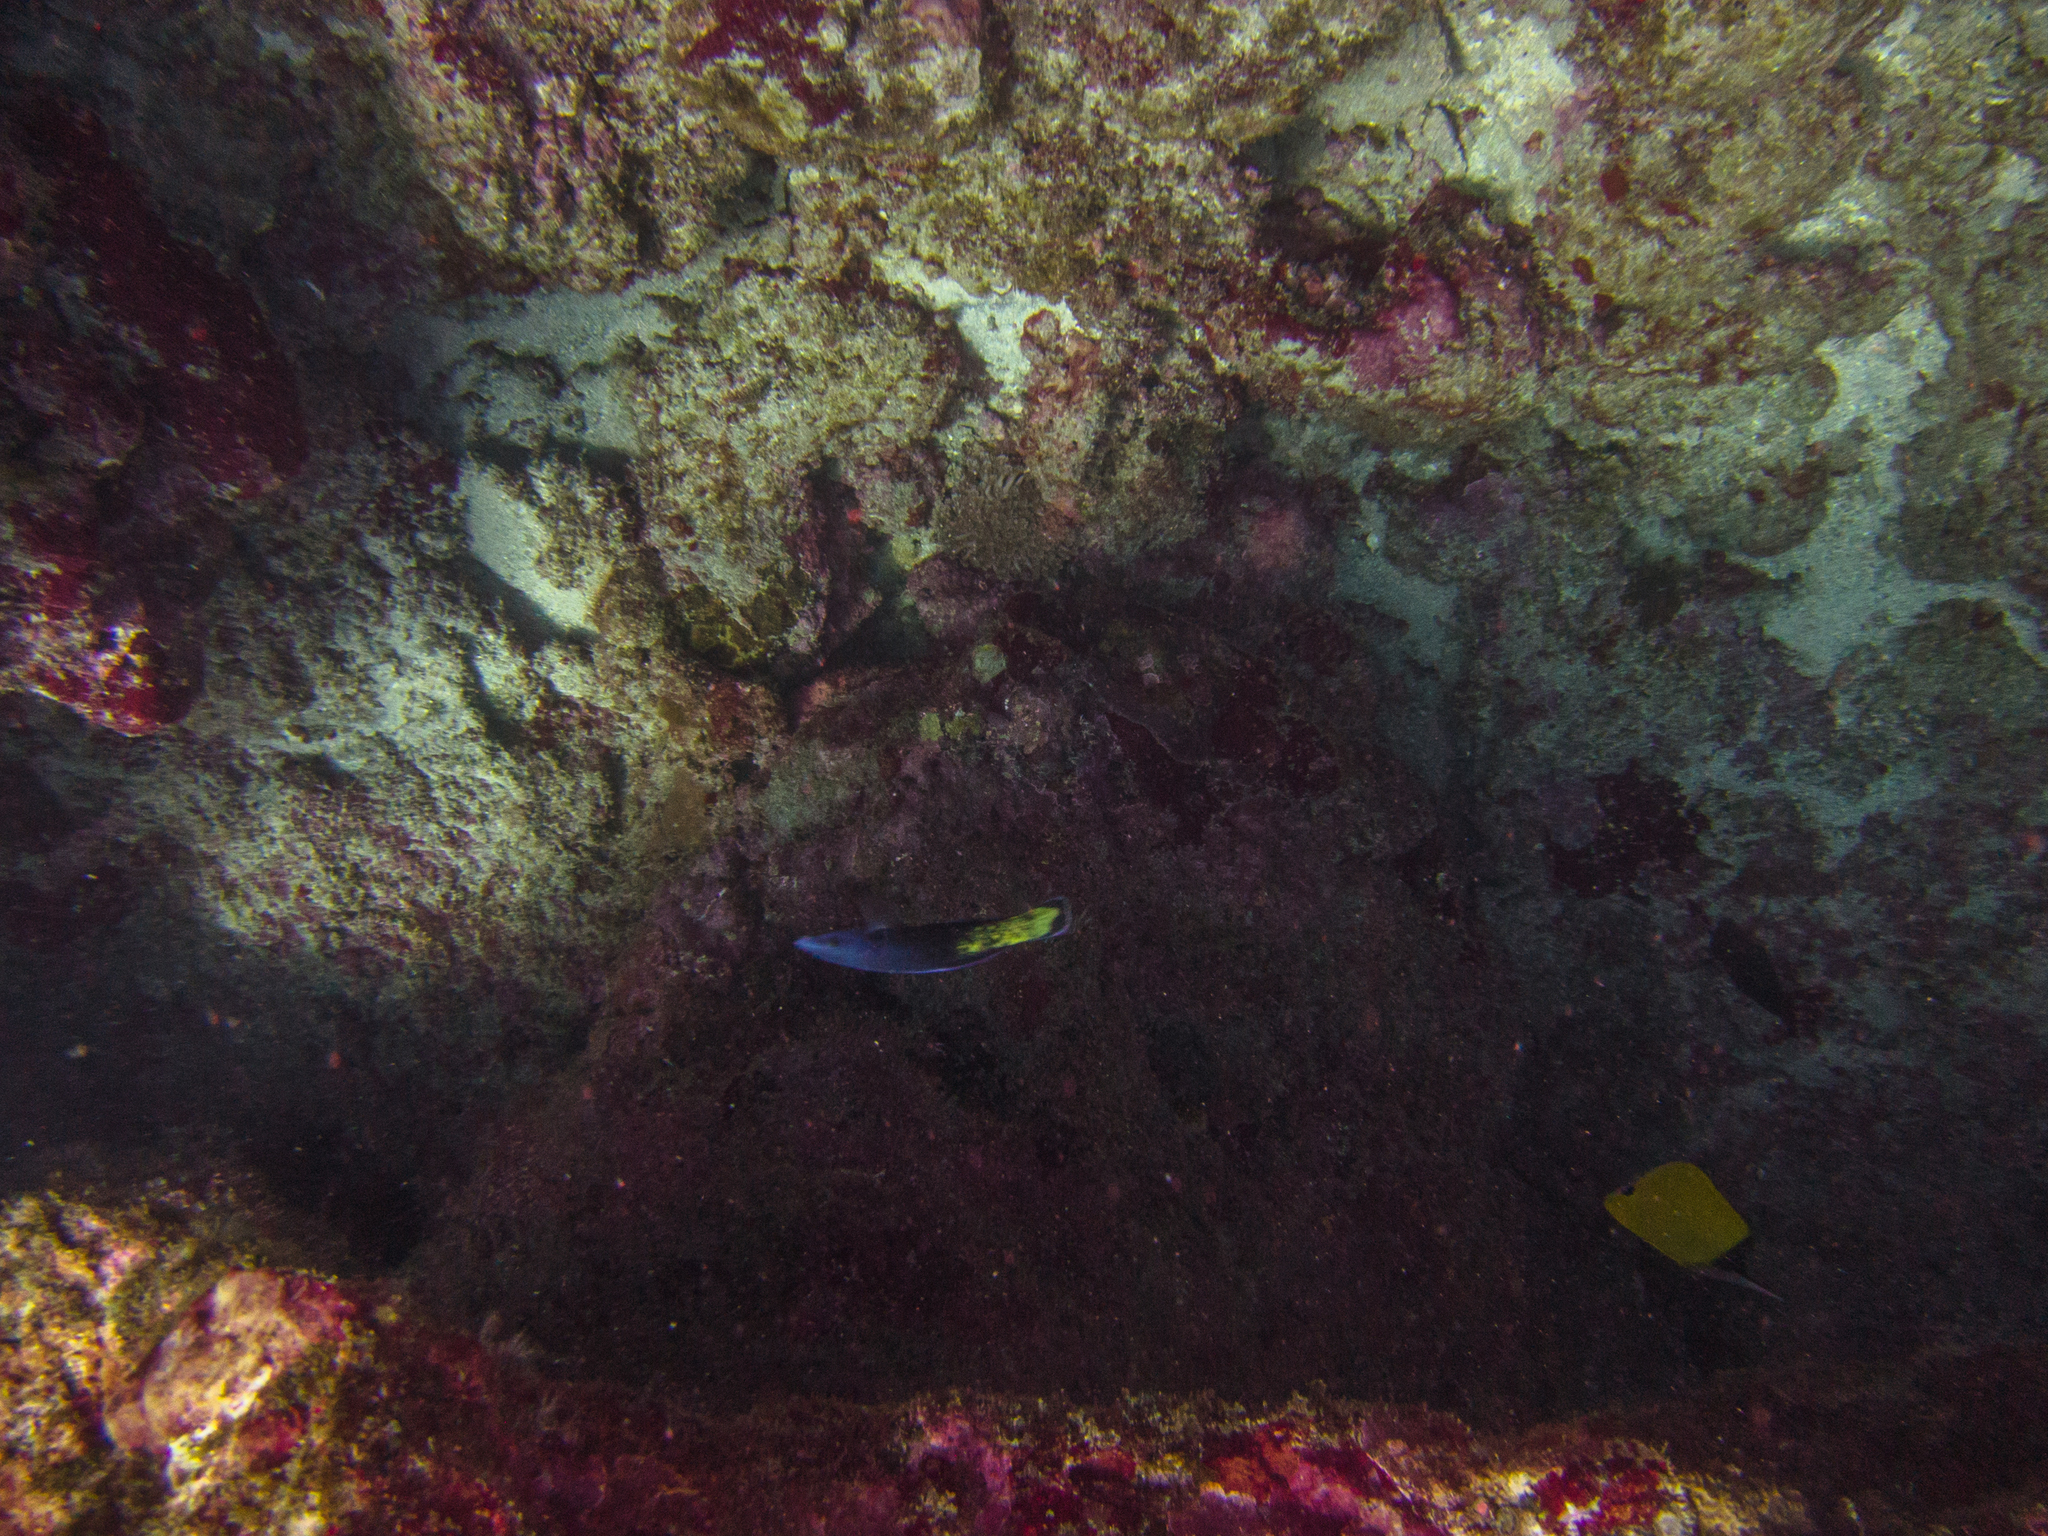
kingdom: Animalia
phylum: Chordata
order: Perciformes
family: Chaetodontidae
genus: Forcipiger
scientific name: Forcipiger flavissimus
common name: Forcepsfish
